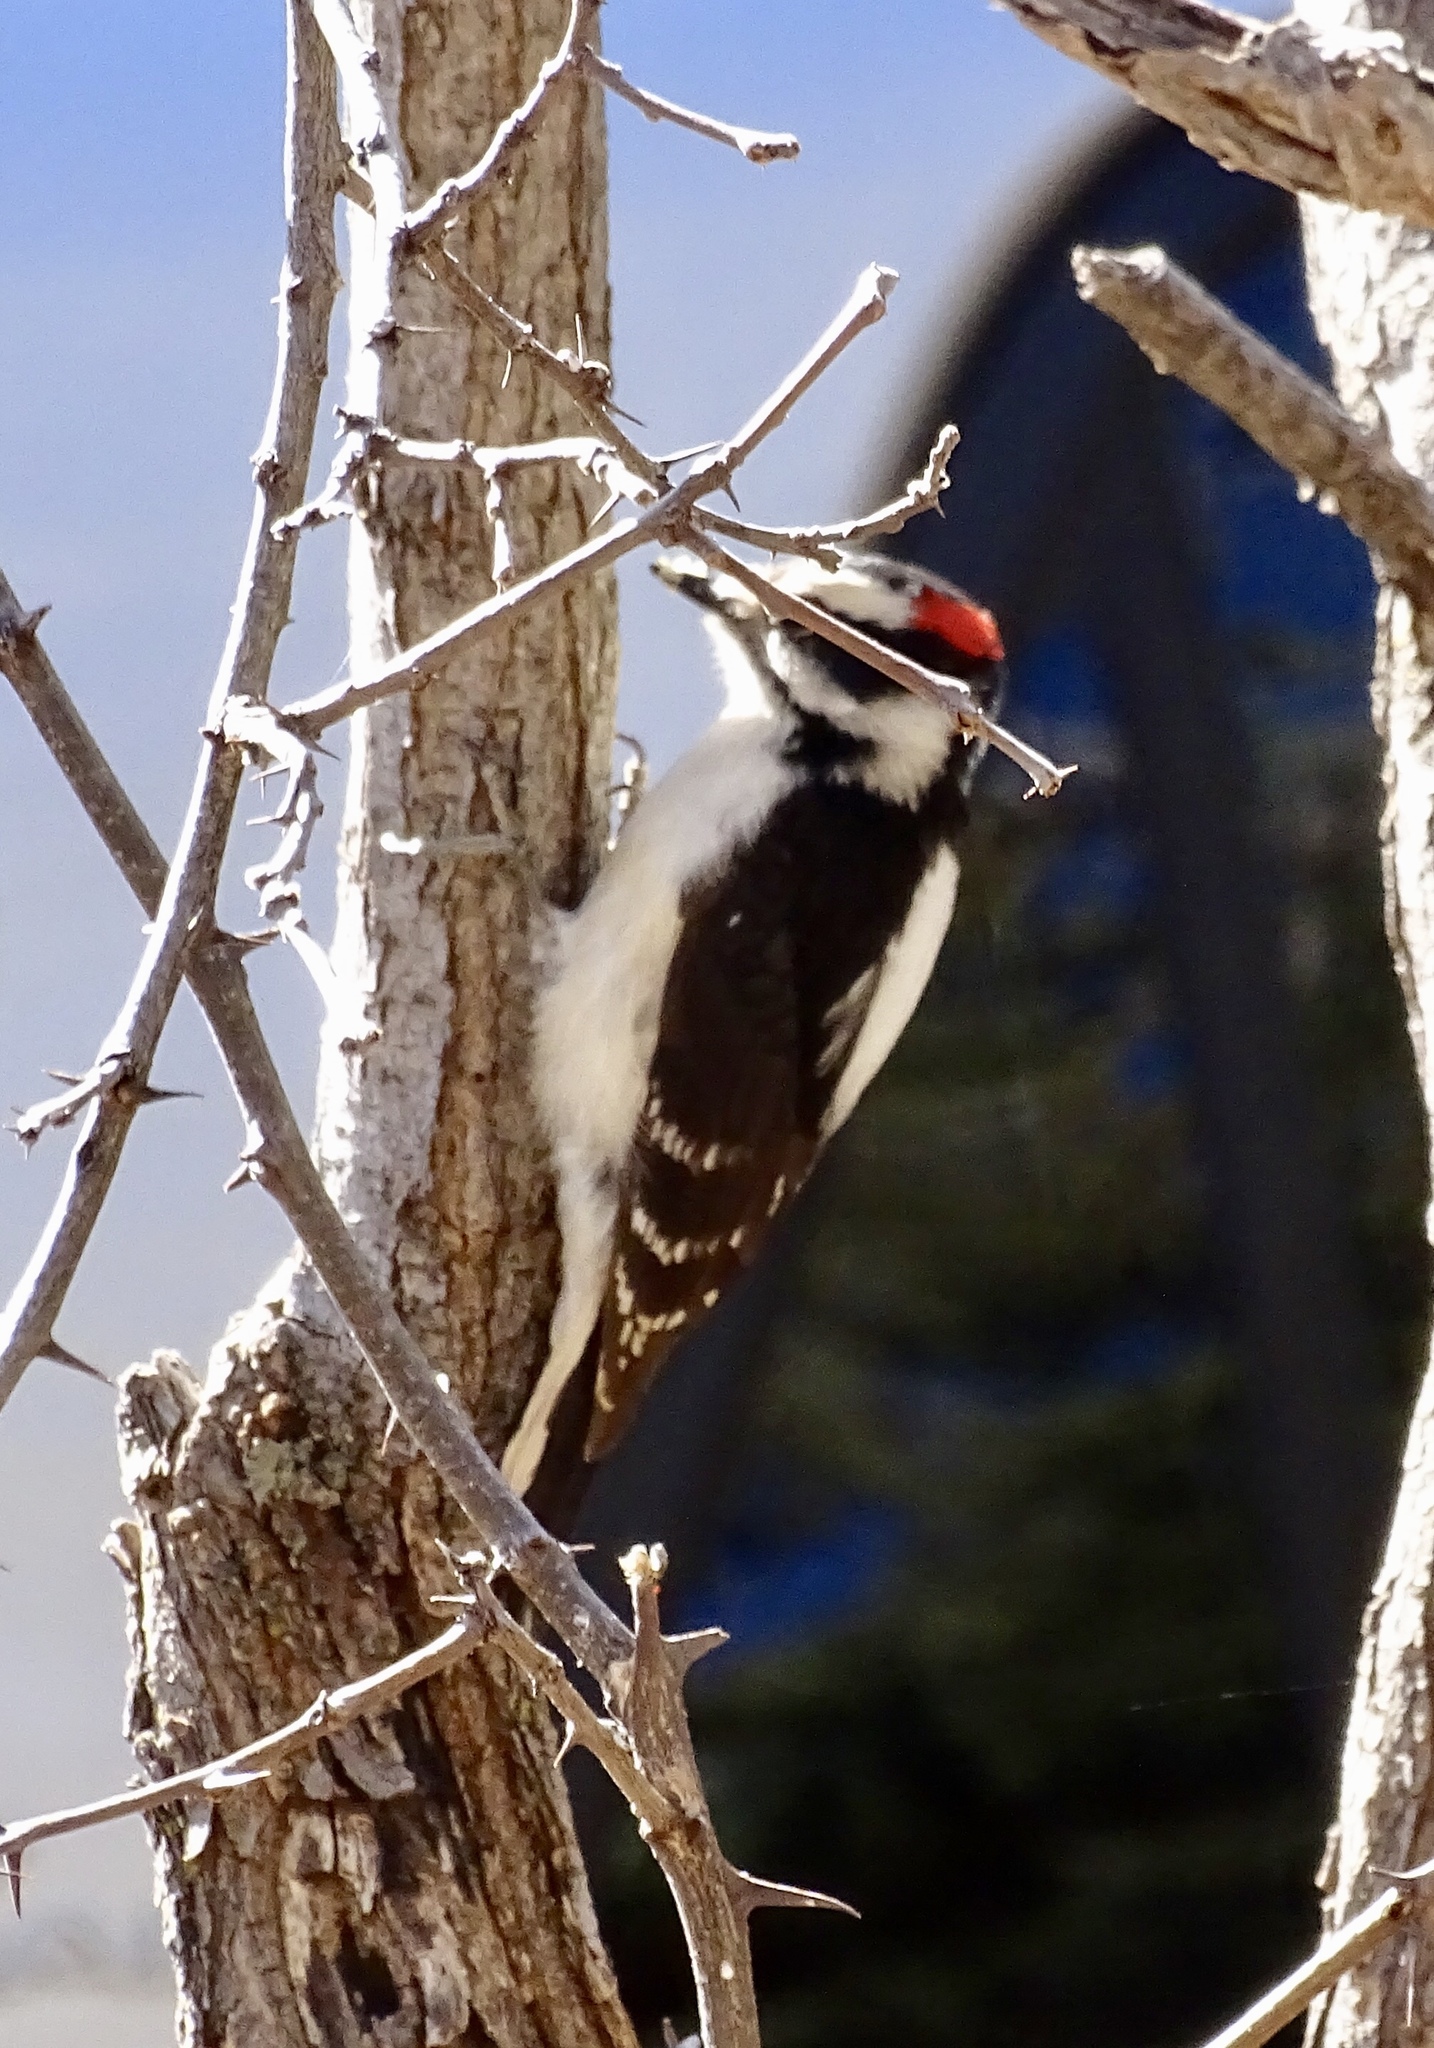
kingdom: Animalia
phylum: Chordata
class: Aves
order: Piciformes
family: Picidae
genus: Dryobates
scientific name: Dryobates pubescens
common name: Downy woodpecker
